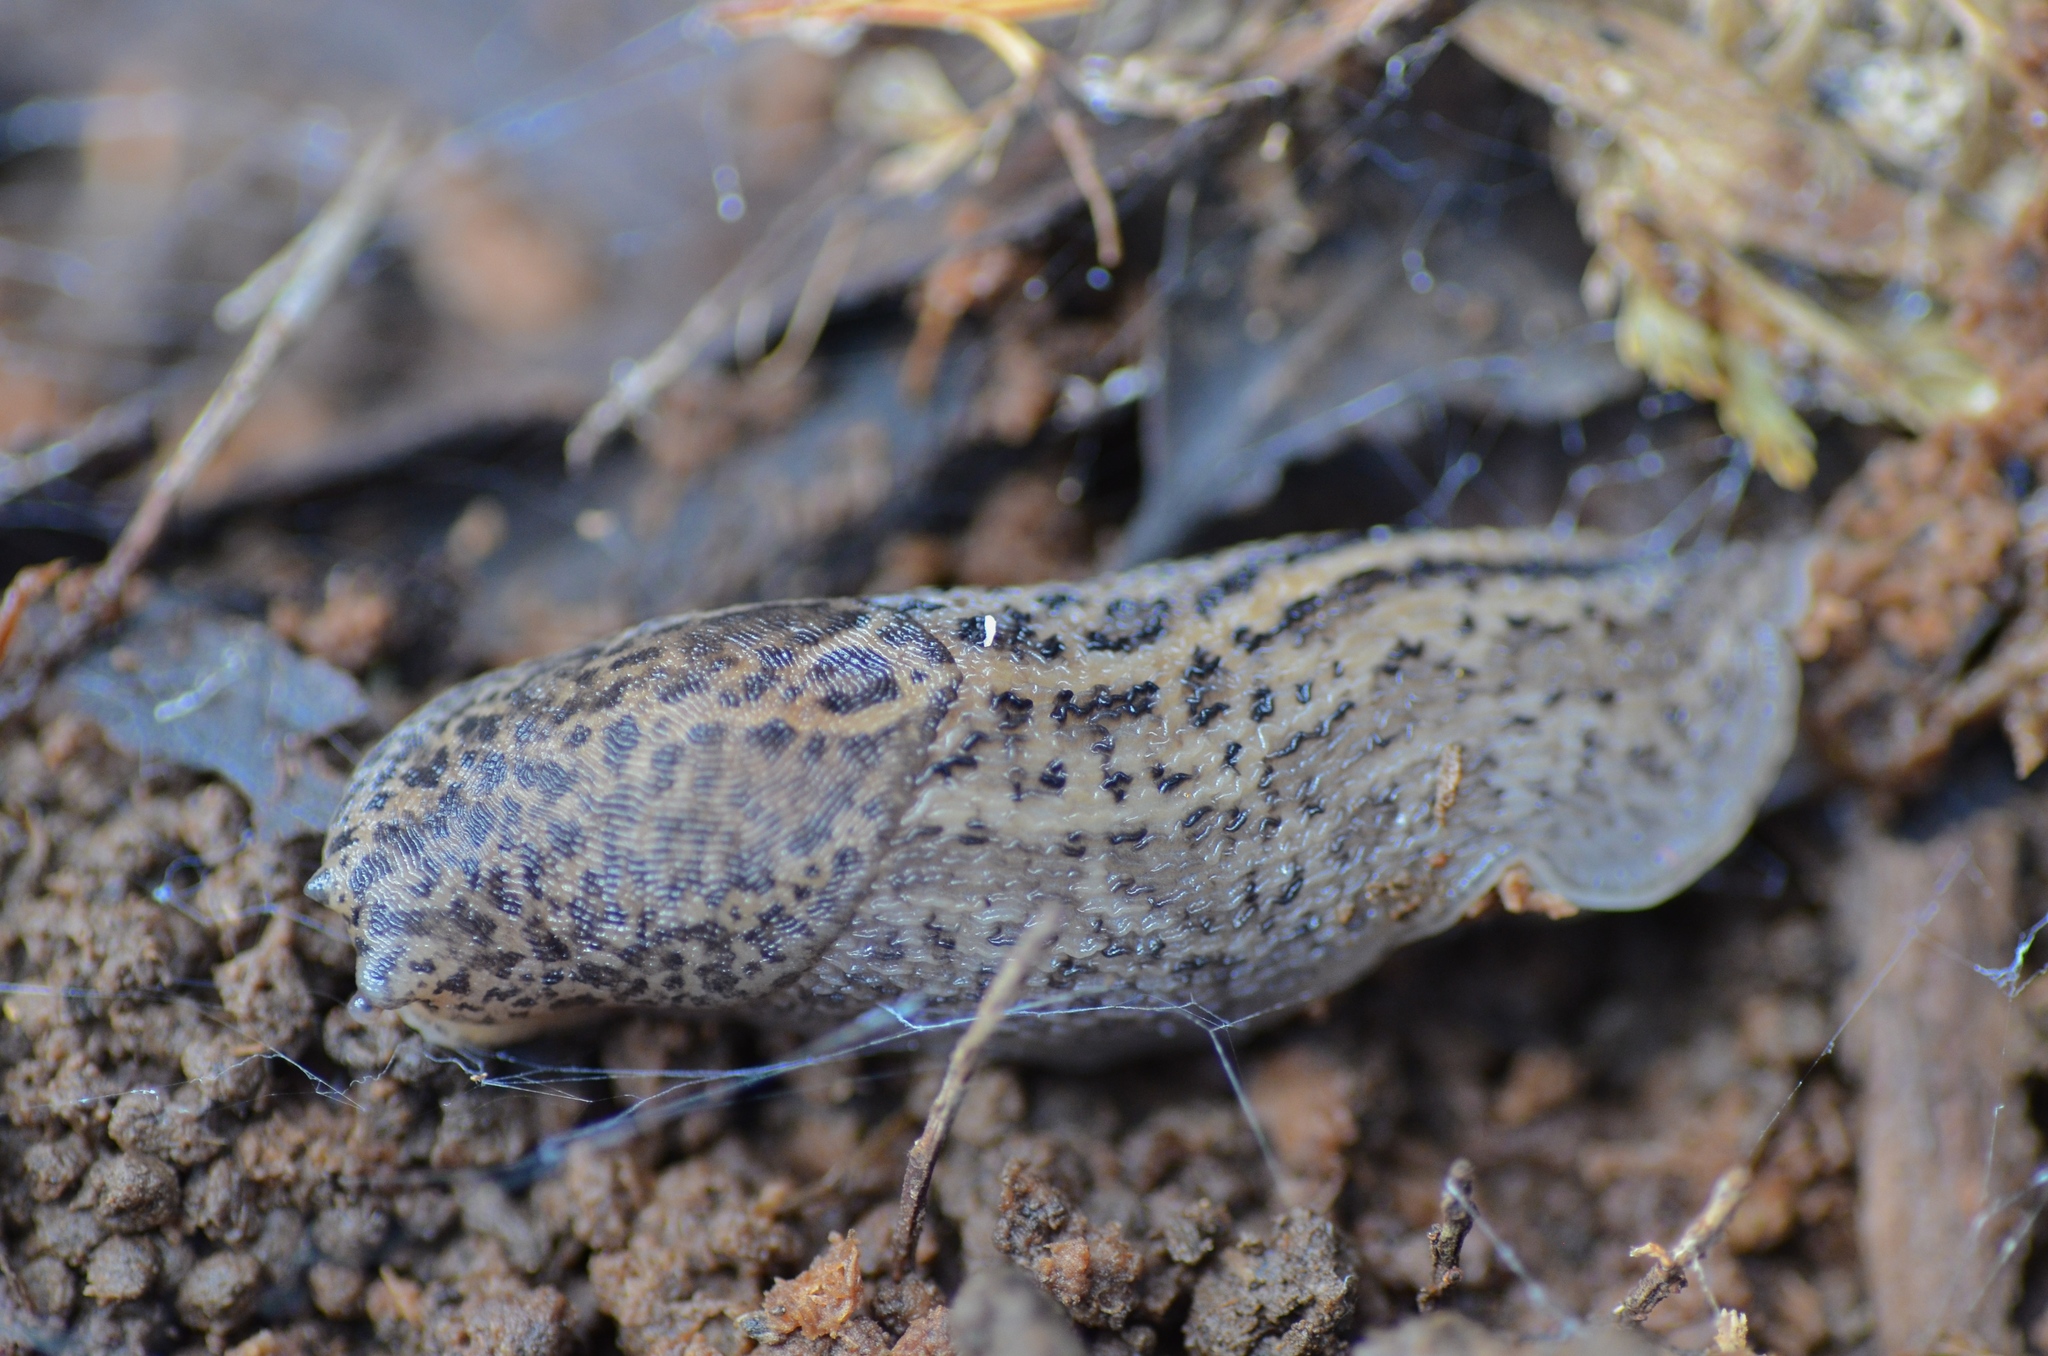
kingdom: Animalia
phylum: Mollusca
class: Gastropoda
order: Stylommatophora
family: Limacidae
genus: Limax
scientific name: Limax maximus
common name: Great grey slug
